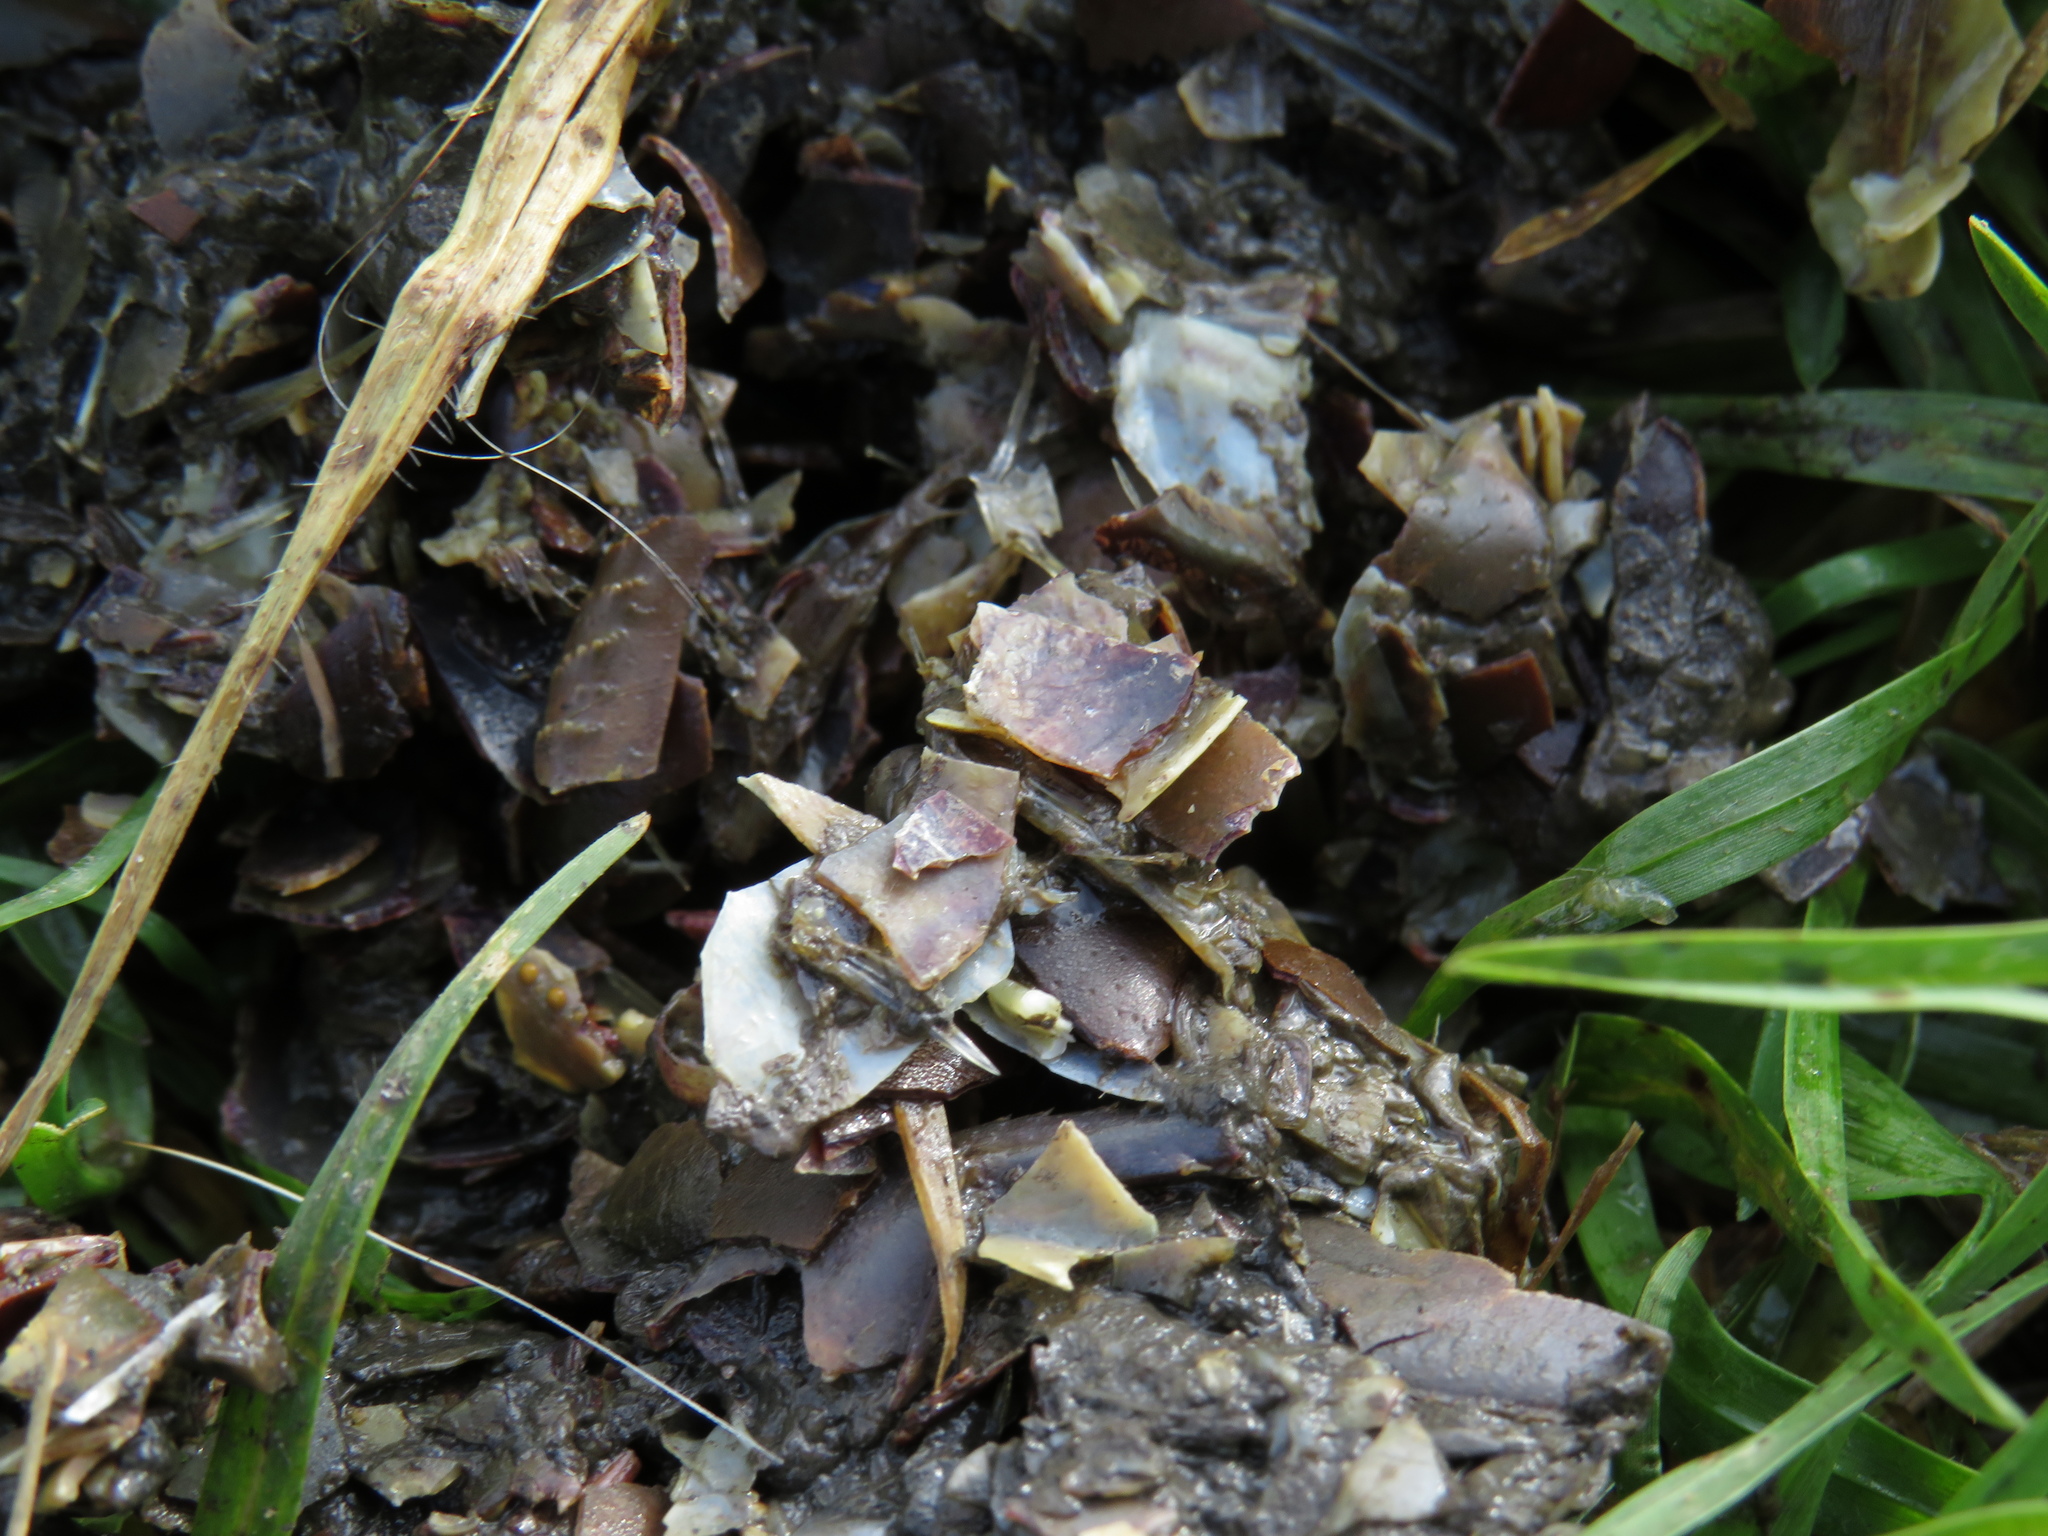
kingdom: Animalia
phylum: Chordata
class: Mammalia
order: Carnivora
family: Mustelidae
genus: Aonyx
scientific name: Aonyx capensis
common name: African clawless otter
